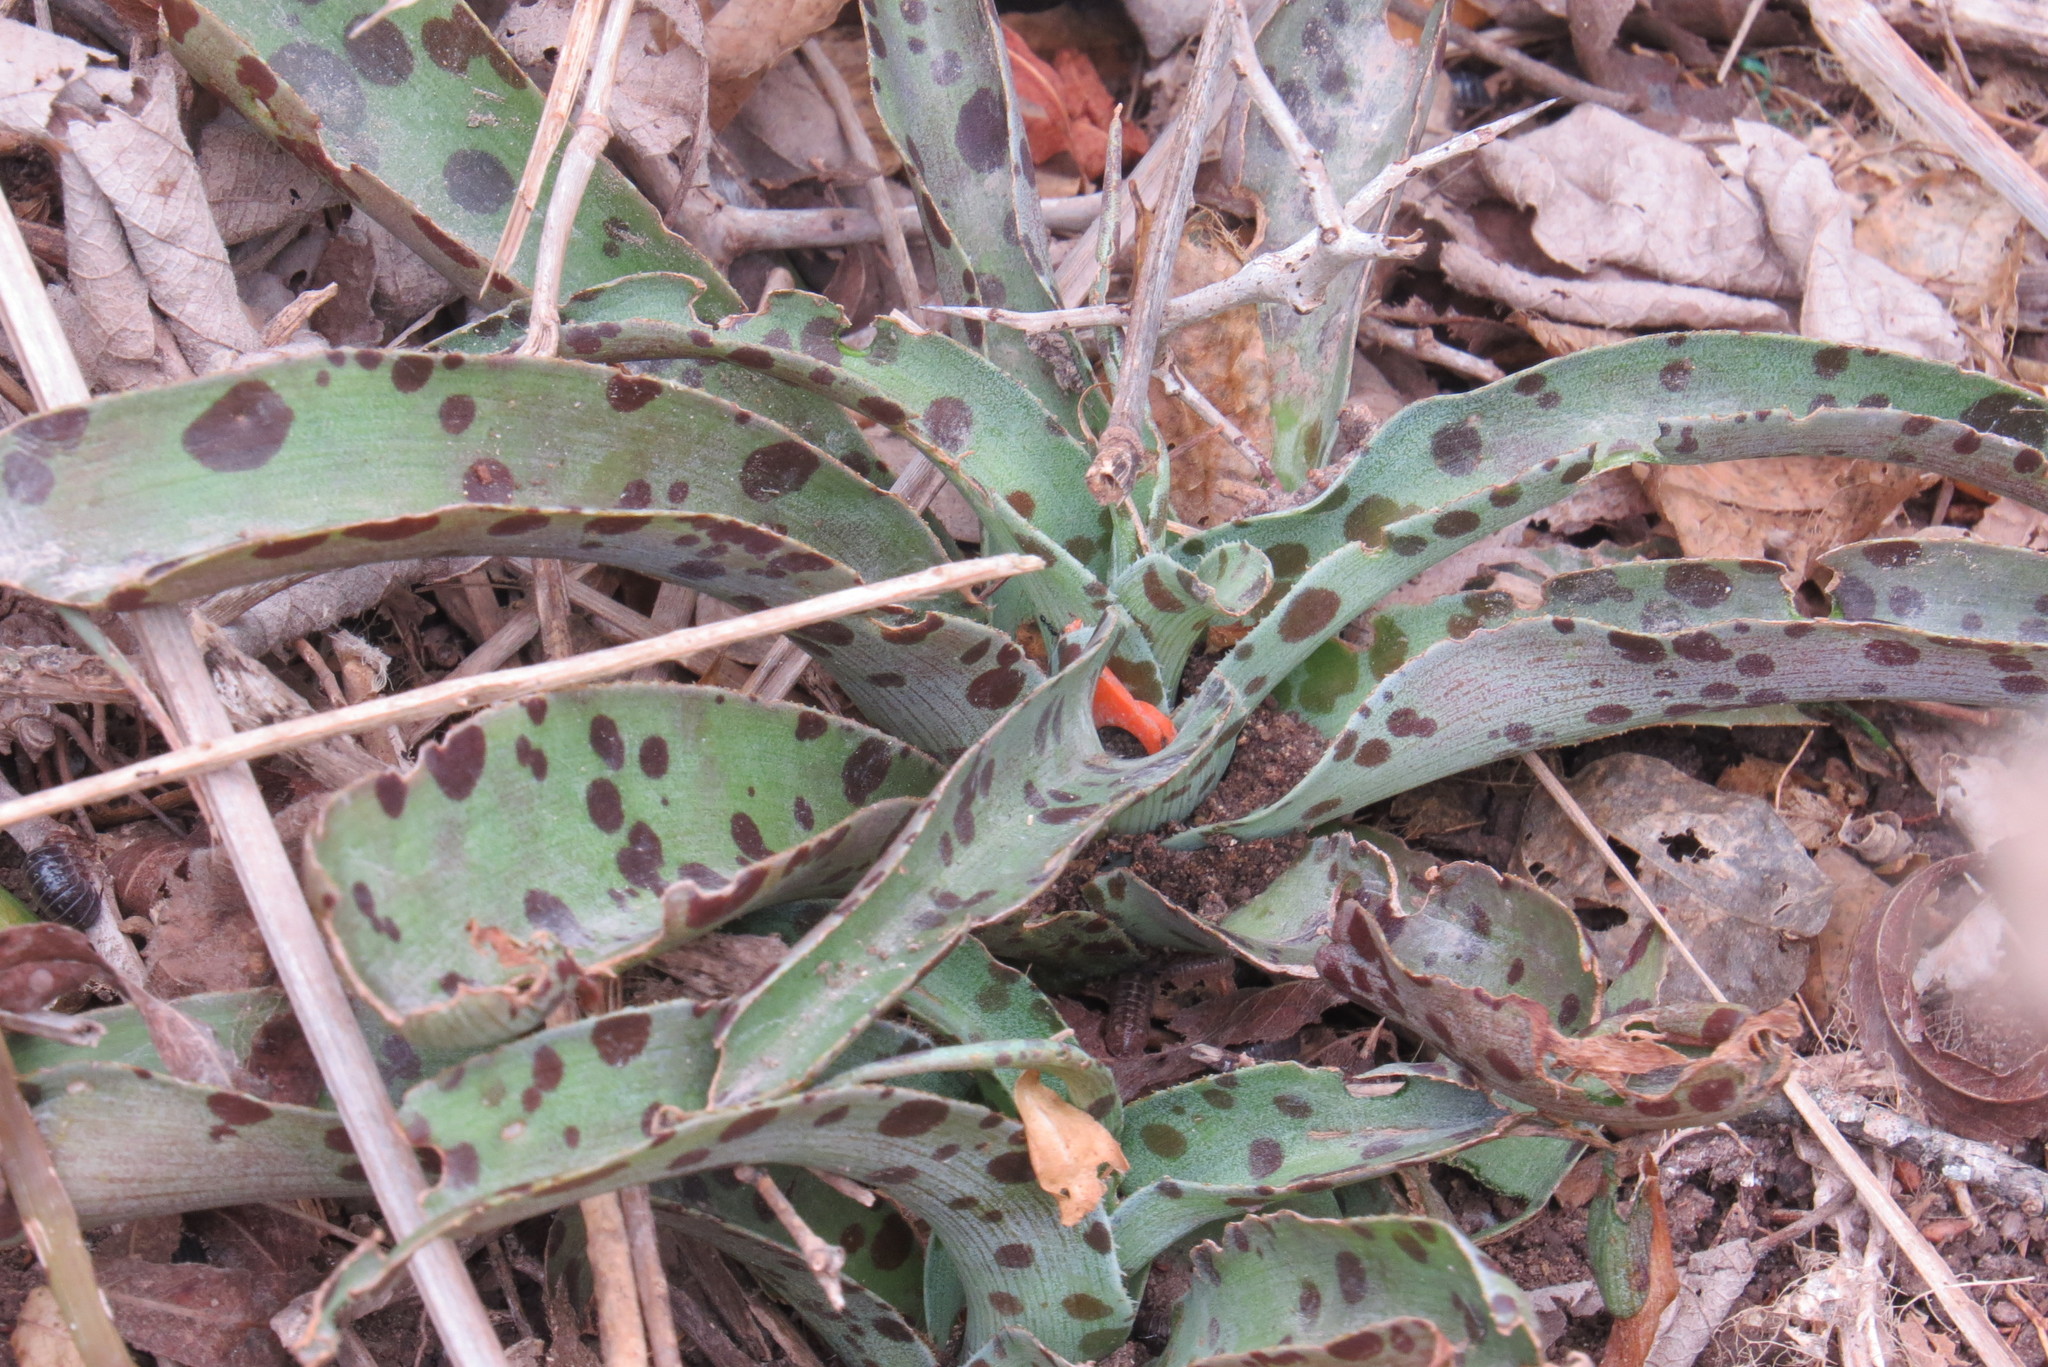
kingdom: Plantae
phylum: Tracheophyta
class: Liliopsida
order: Asparagales
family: Asparagaceae
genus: Agave
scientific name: Agave variegata
